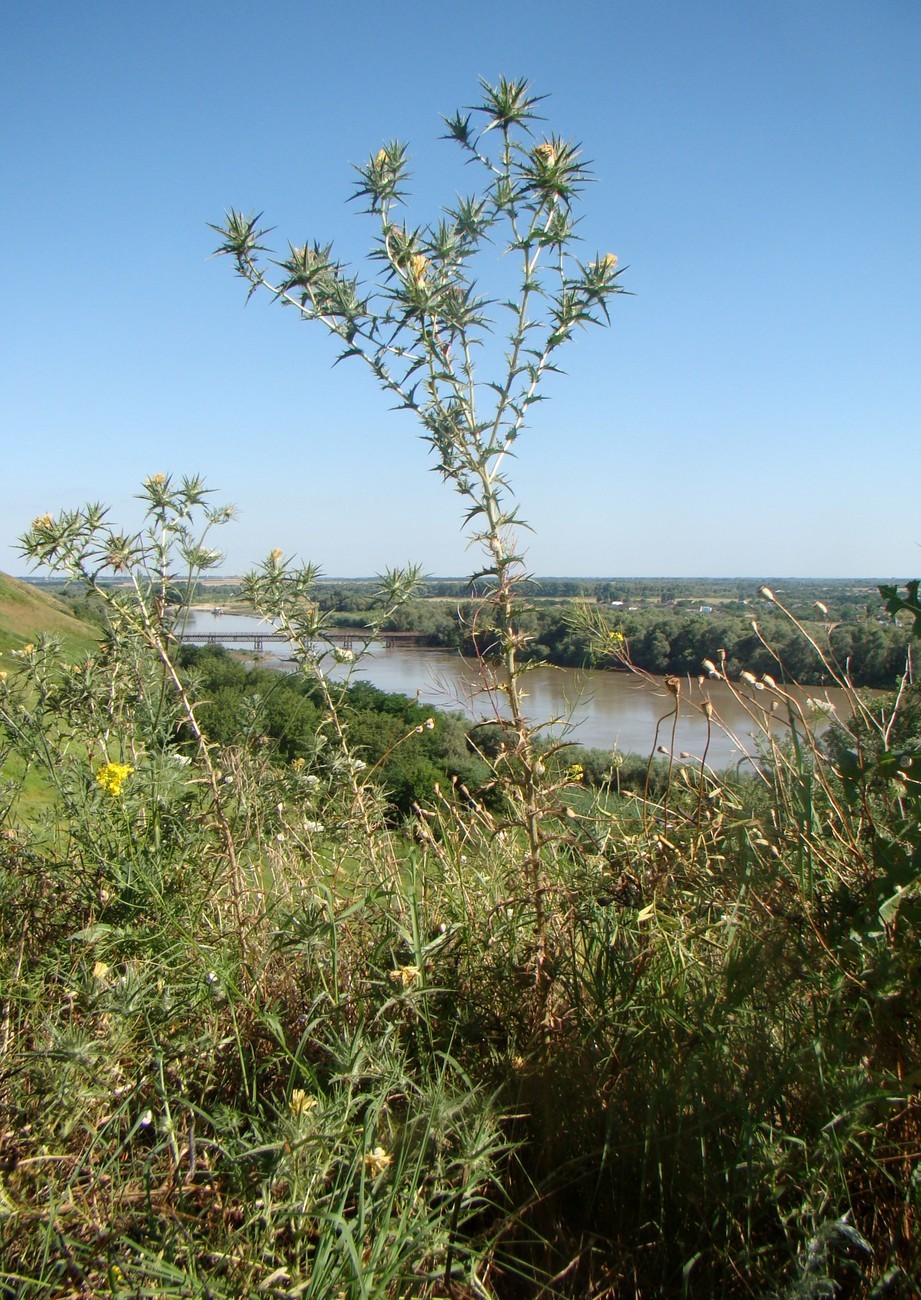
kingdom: Plantae
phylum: Tracheophyta
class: Magnoliopsida
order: Asterales
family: Asteraceae
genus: Carthamus
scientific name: Carthamus lanatus
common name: Downy safflower
